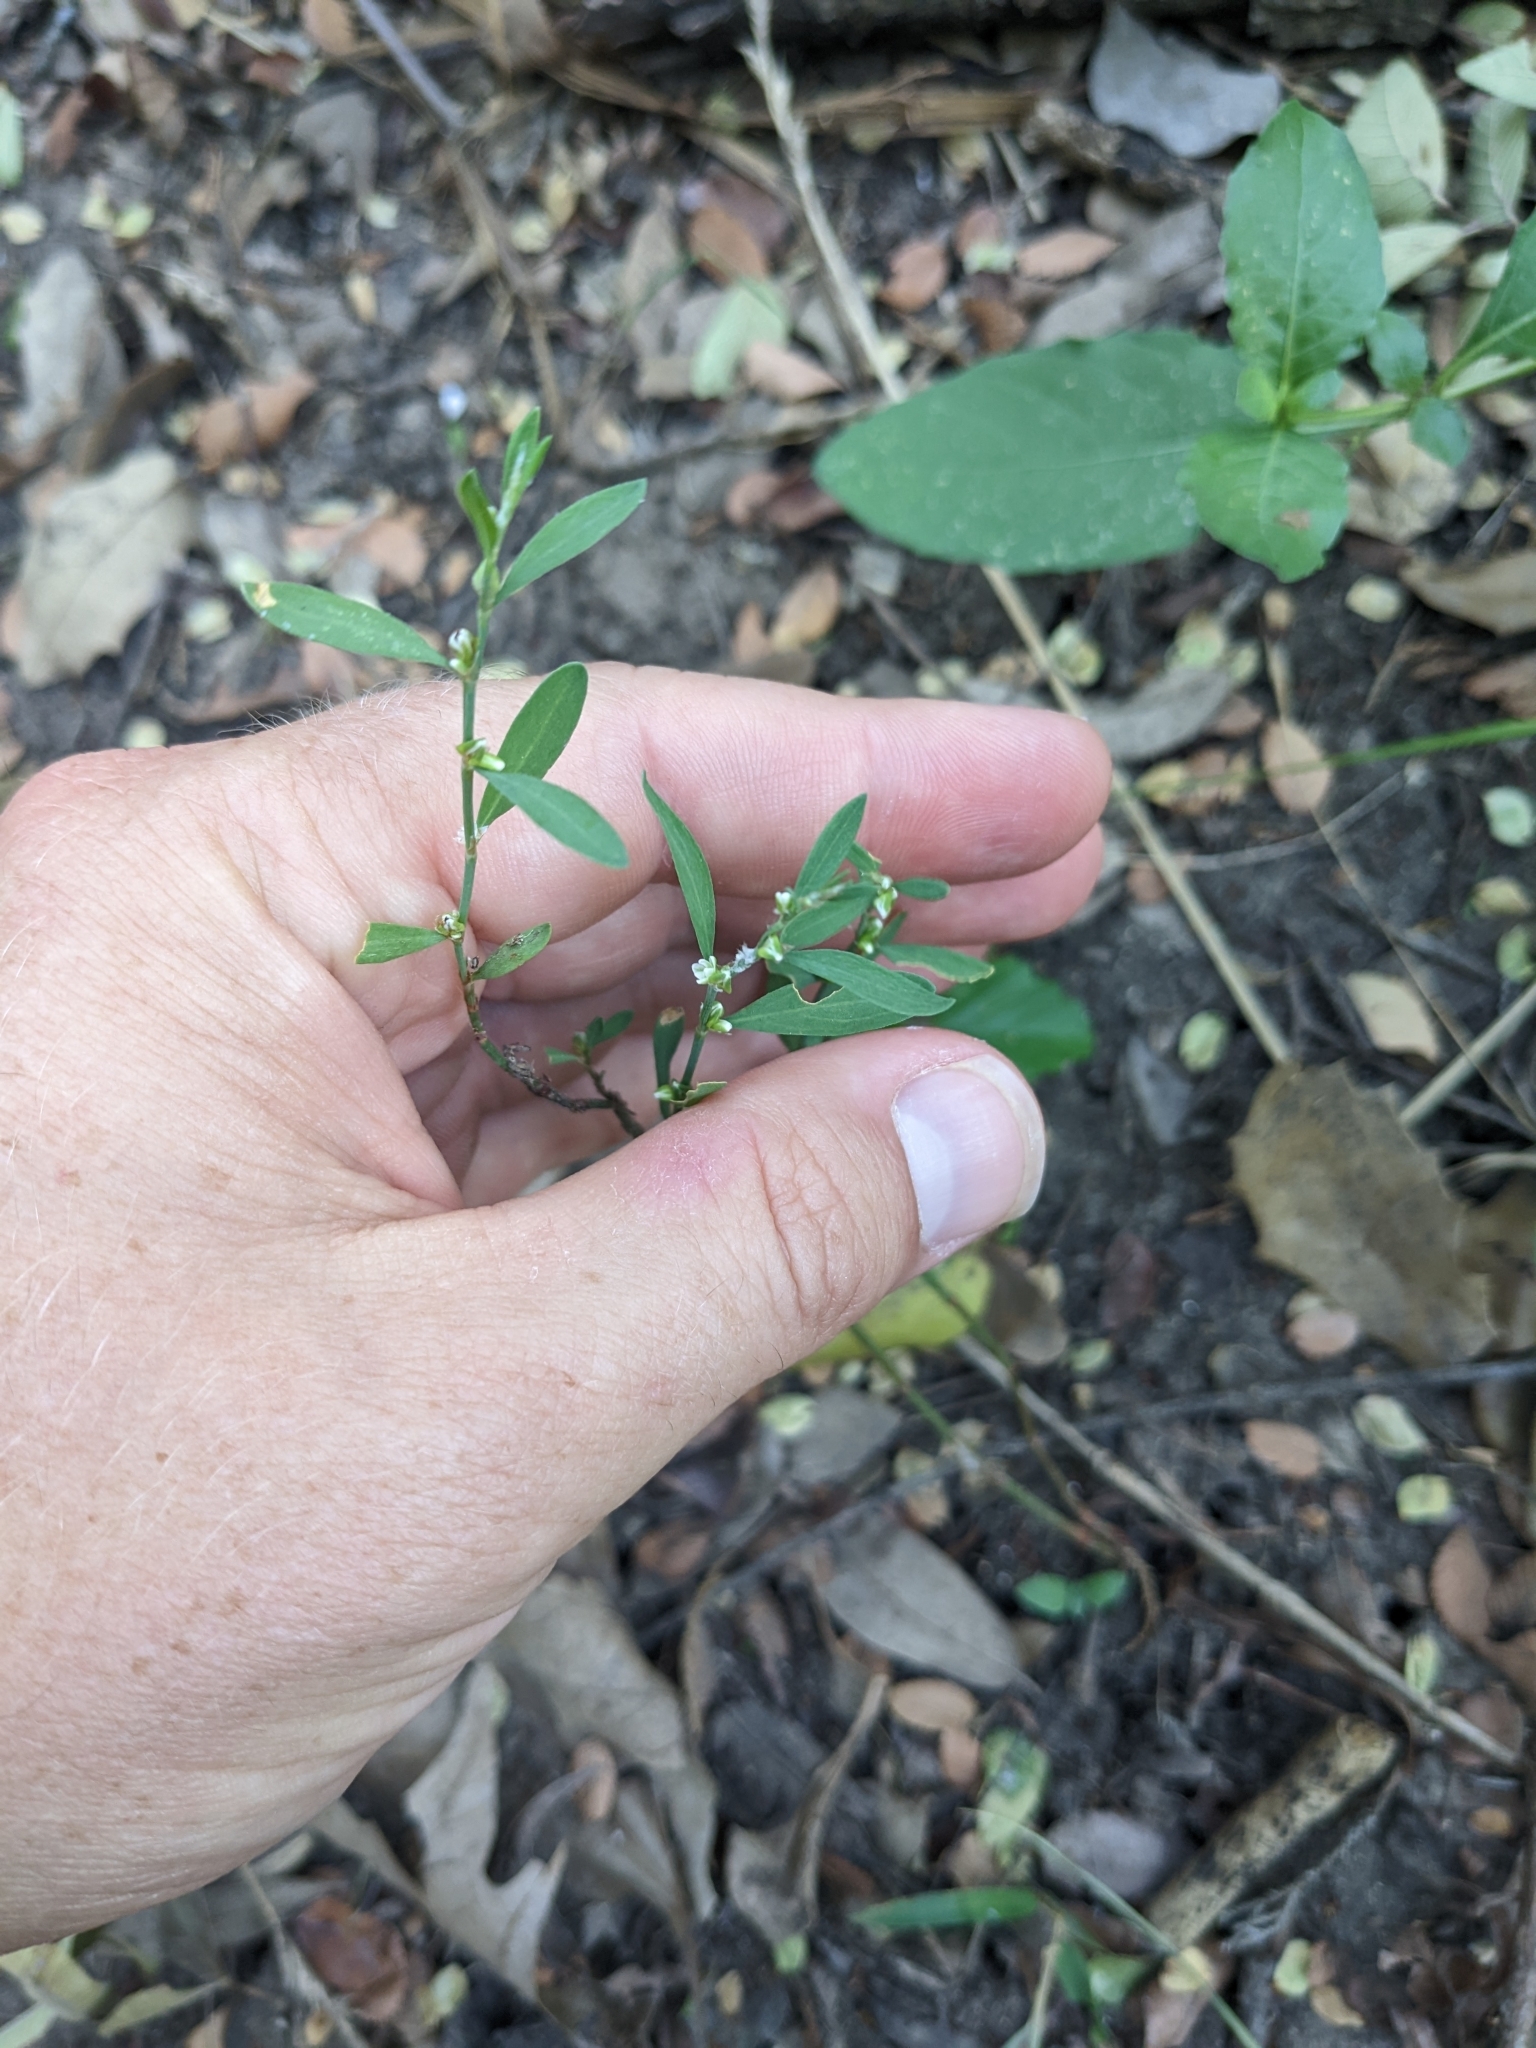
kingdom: Plantae
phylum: Tracheophyta
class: Magnoliopsida
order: Caryophyllales
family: Polygonaceae
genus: Polygonum
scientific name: Polygonum aviculare
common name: Prostrate knotweed
